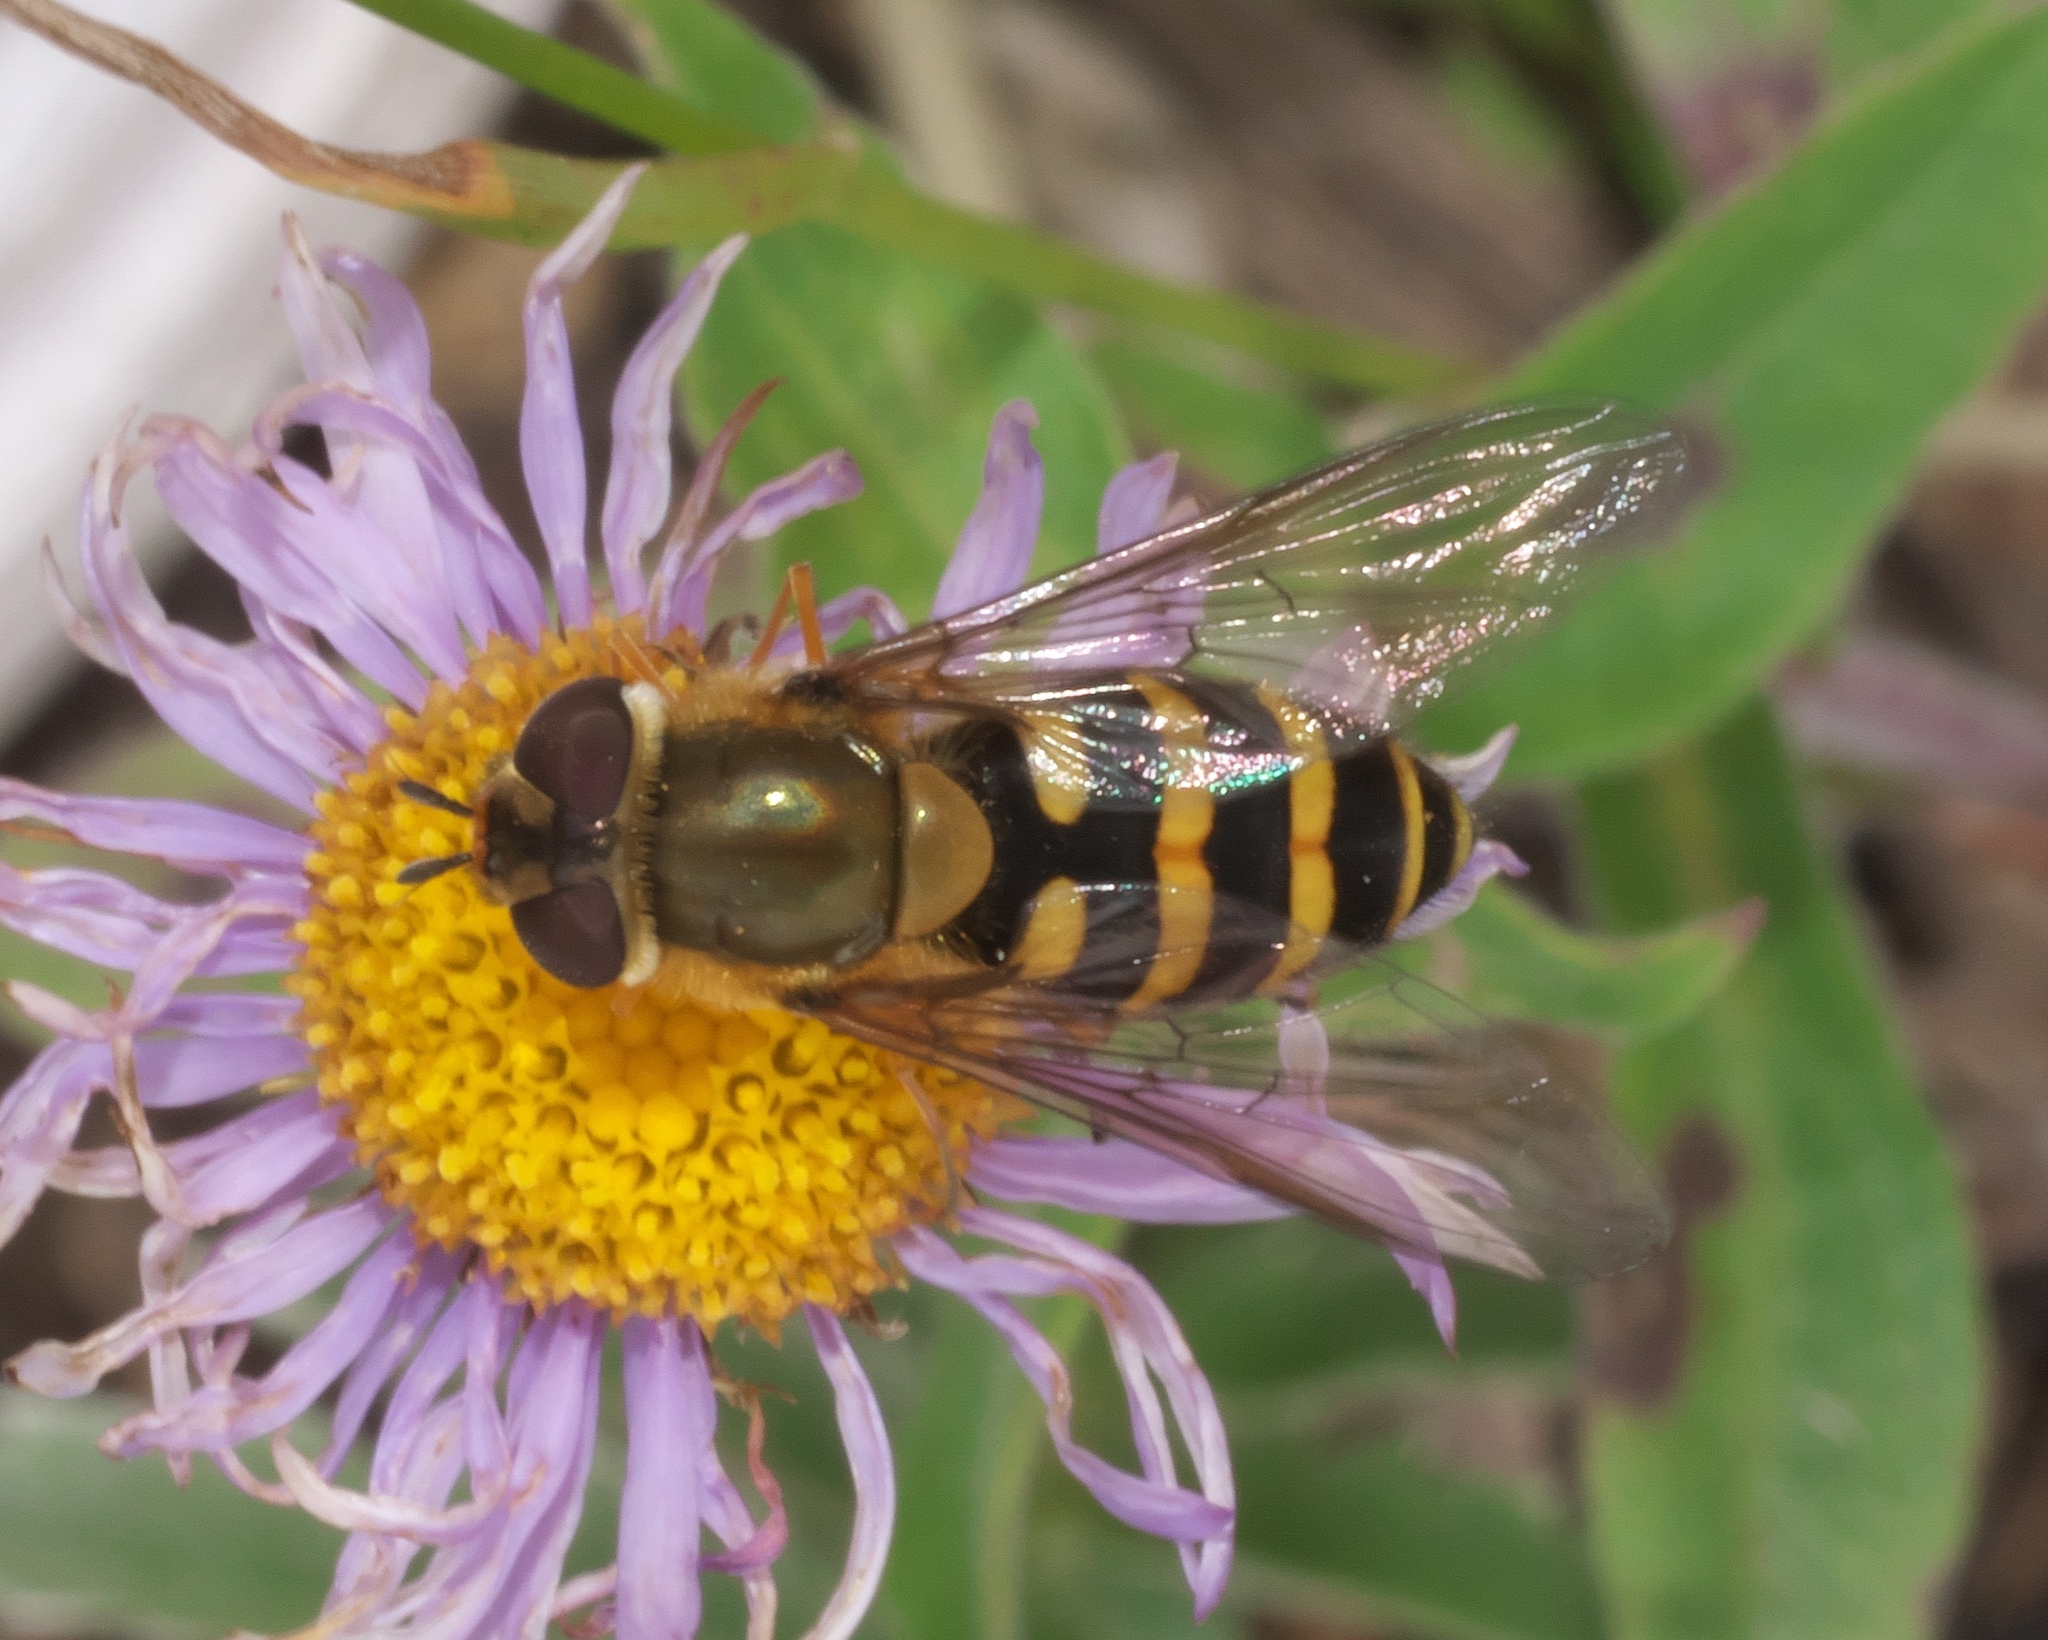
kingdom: Animalia
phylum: Arthropoda
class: Insecta
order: Diptera
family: Syrphidae
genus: Syrphus
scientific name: Syrphus
